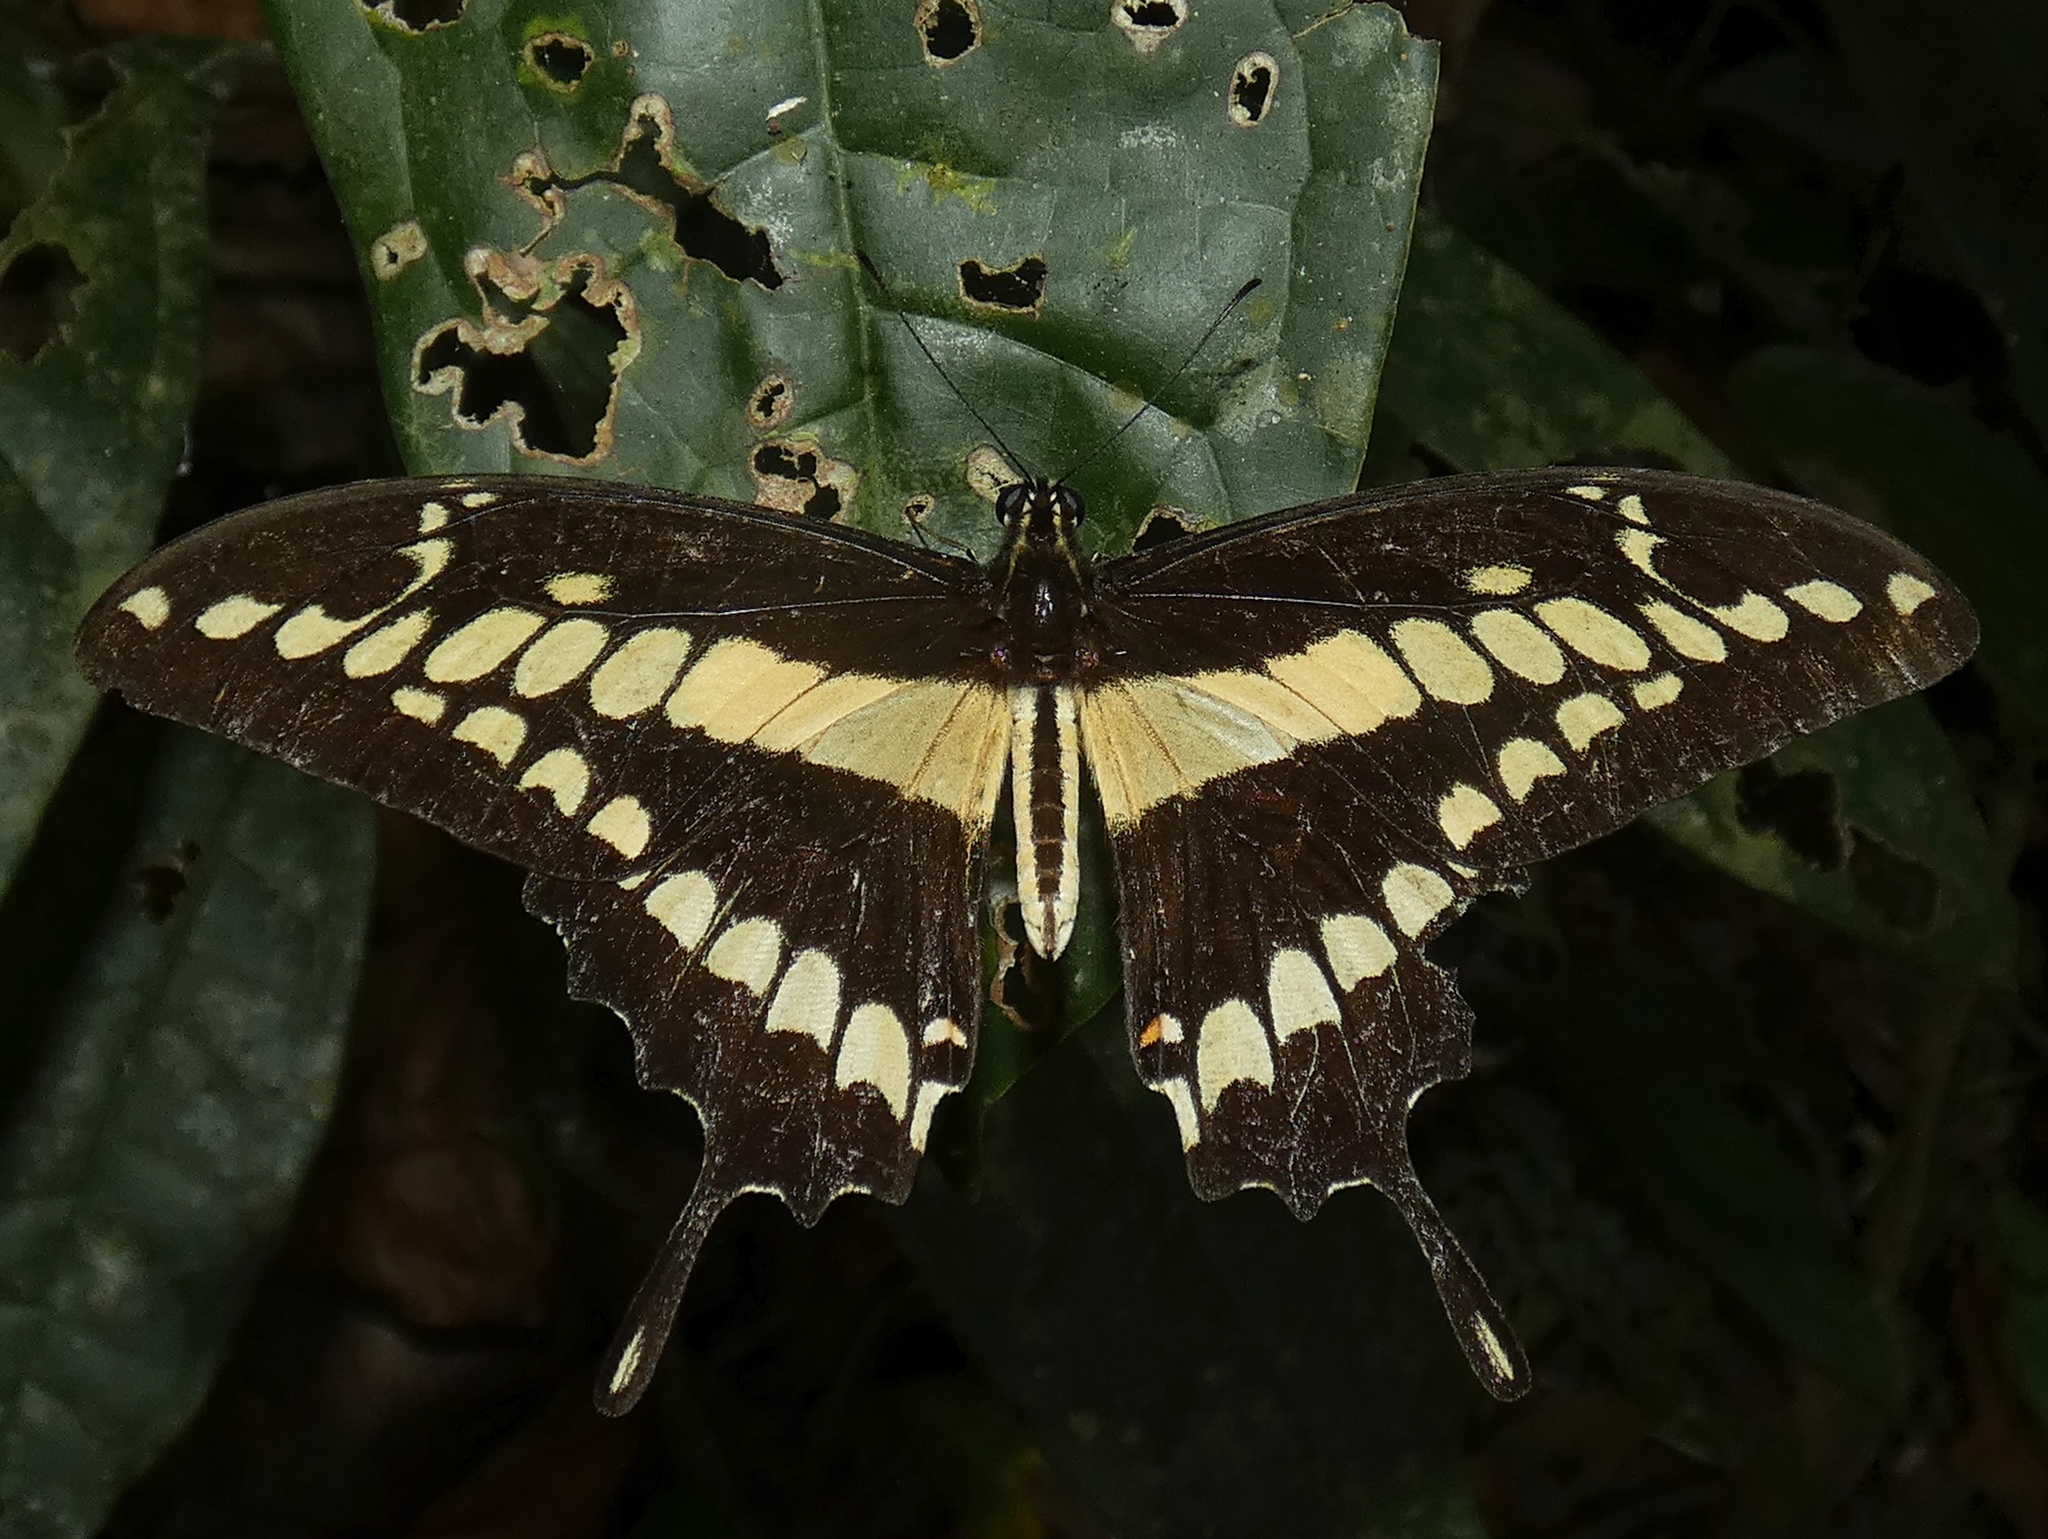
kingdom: Animalia
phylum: Arthropoda
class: Insecta
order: Lepidoptera
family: Papilionidae
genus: Papilio
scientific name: Papilio thoas
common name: King swallowtail
